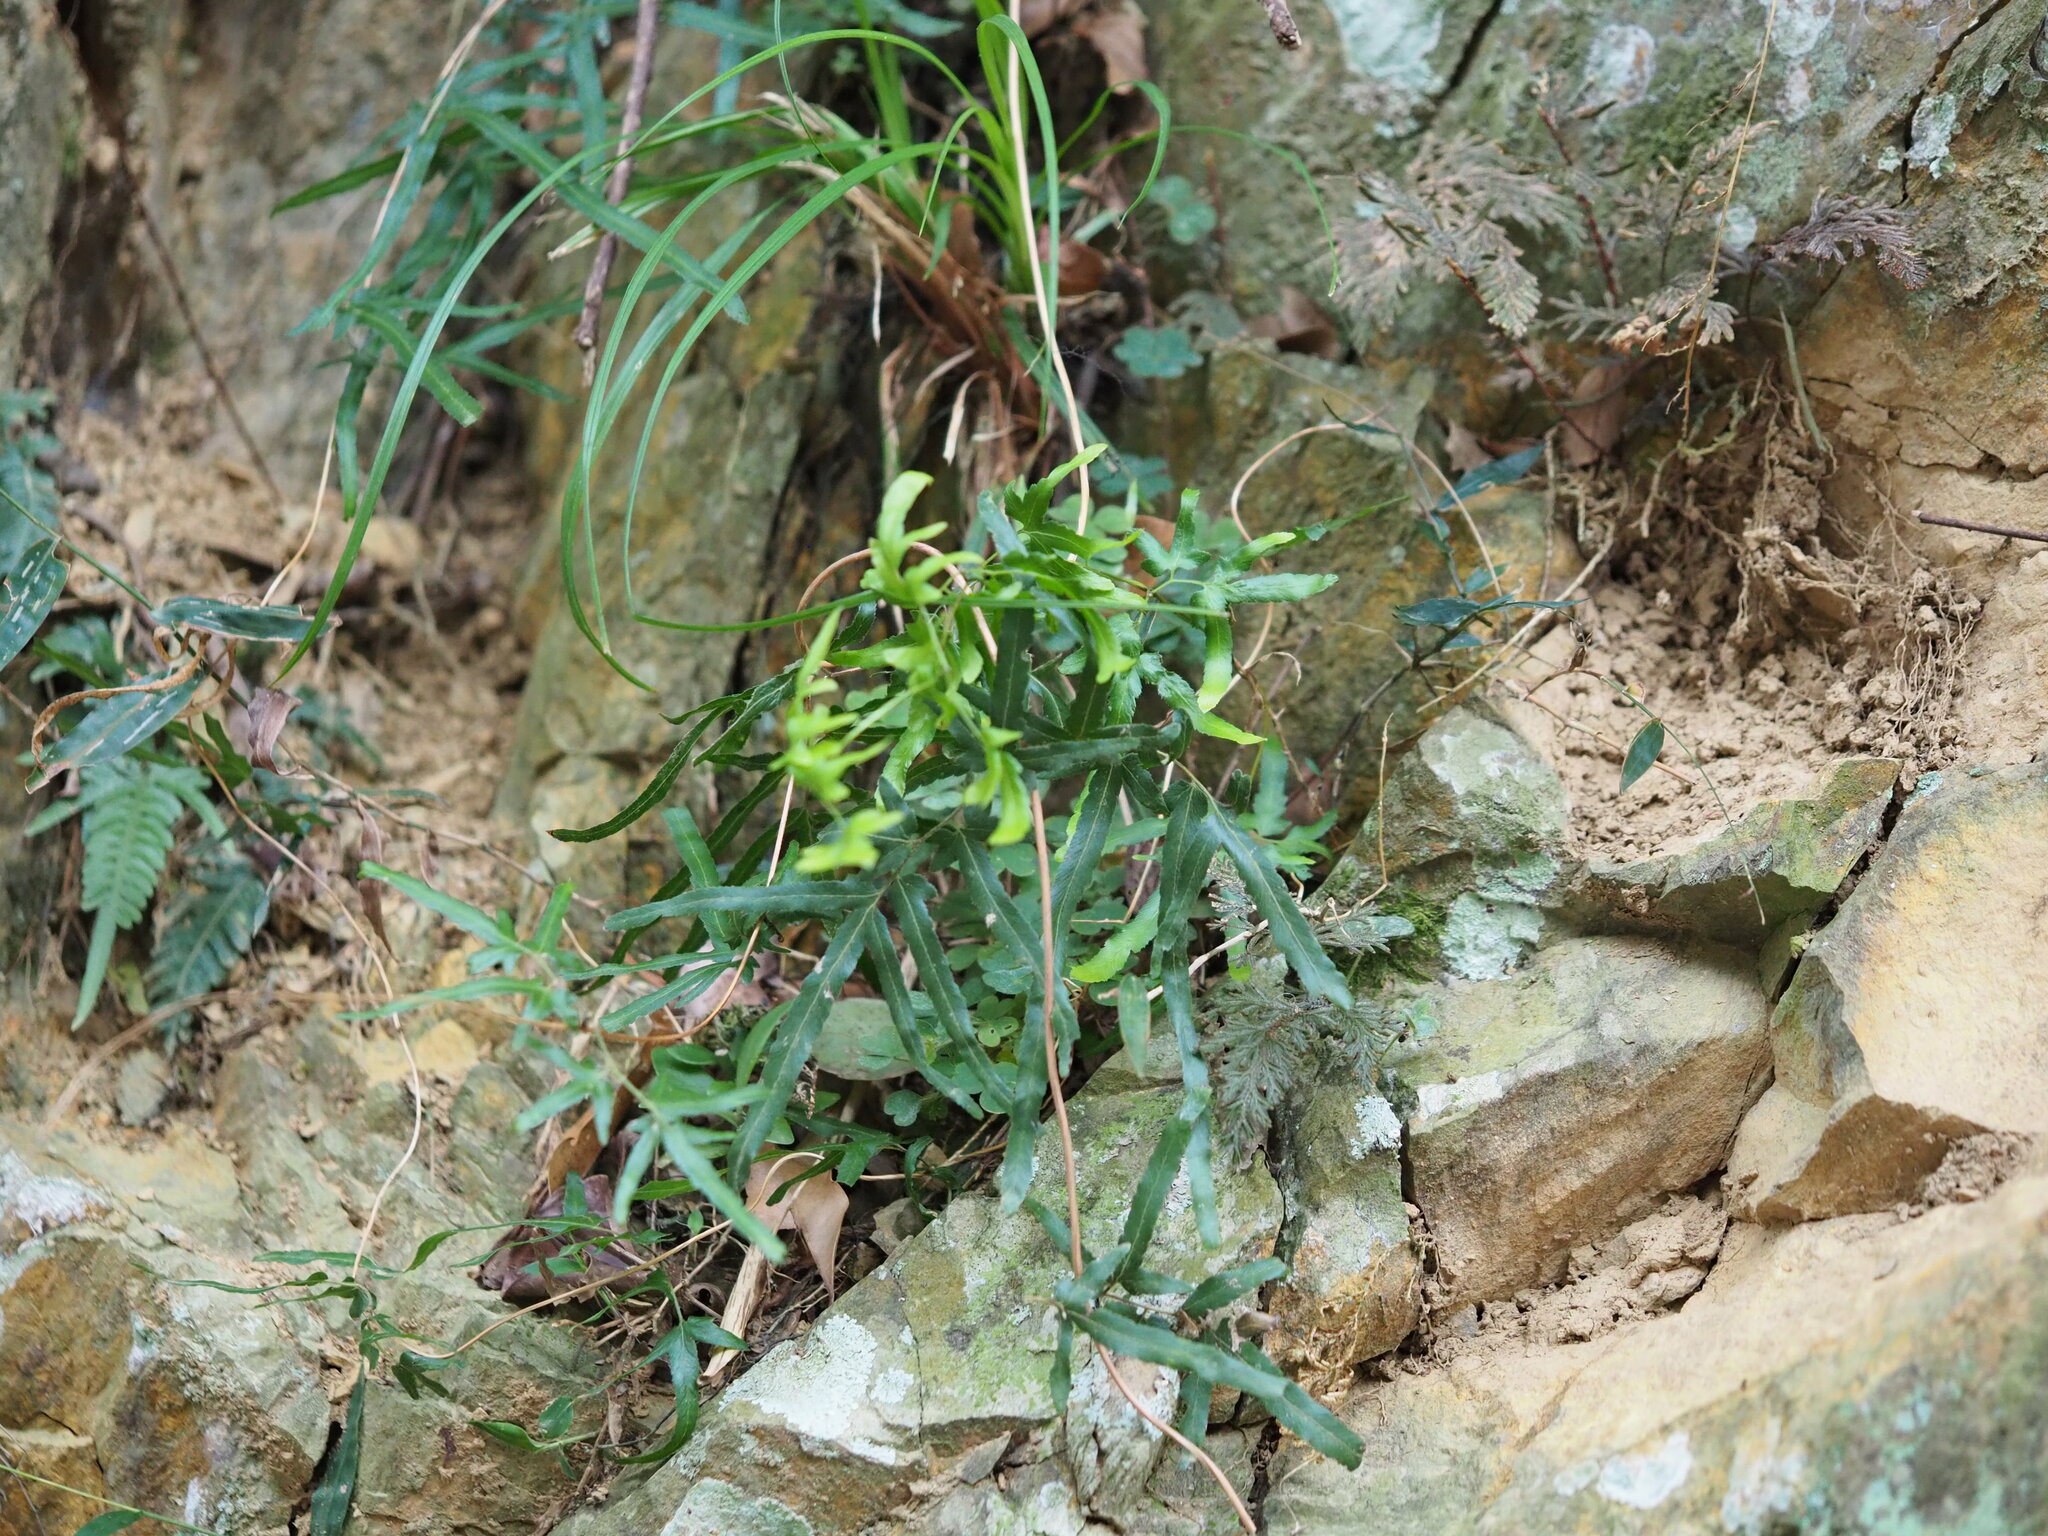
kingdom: Plantae
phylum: Tracheophyta
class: Polypodiopsida
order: Schizaeales
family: Lygodiaceae
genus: Lygodium
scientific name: Lygodium japonicum
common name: Japanese climbing fern
